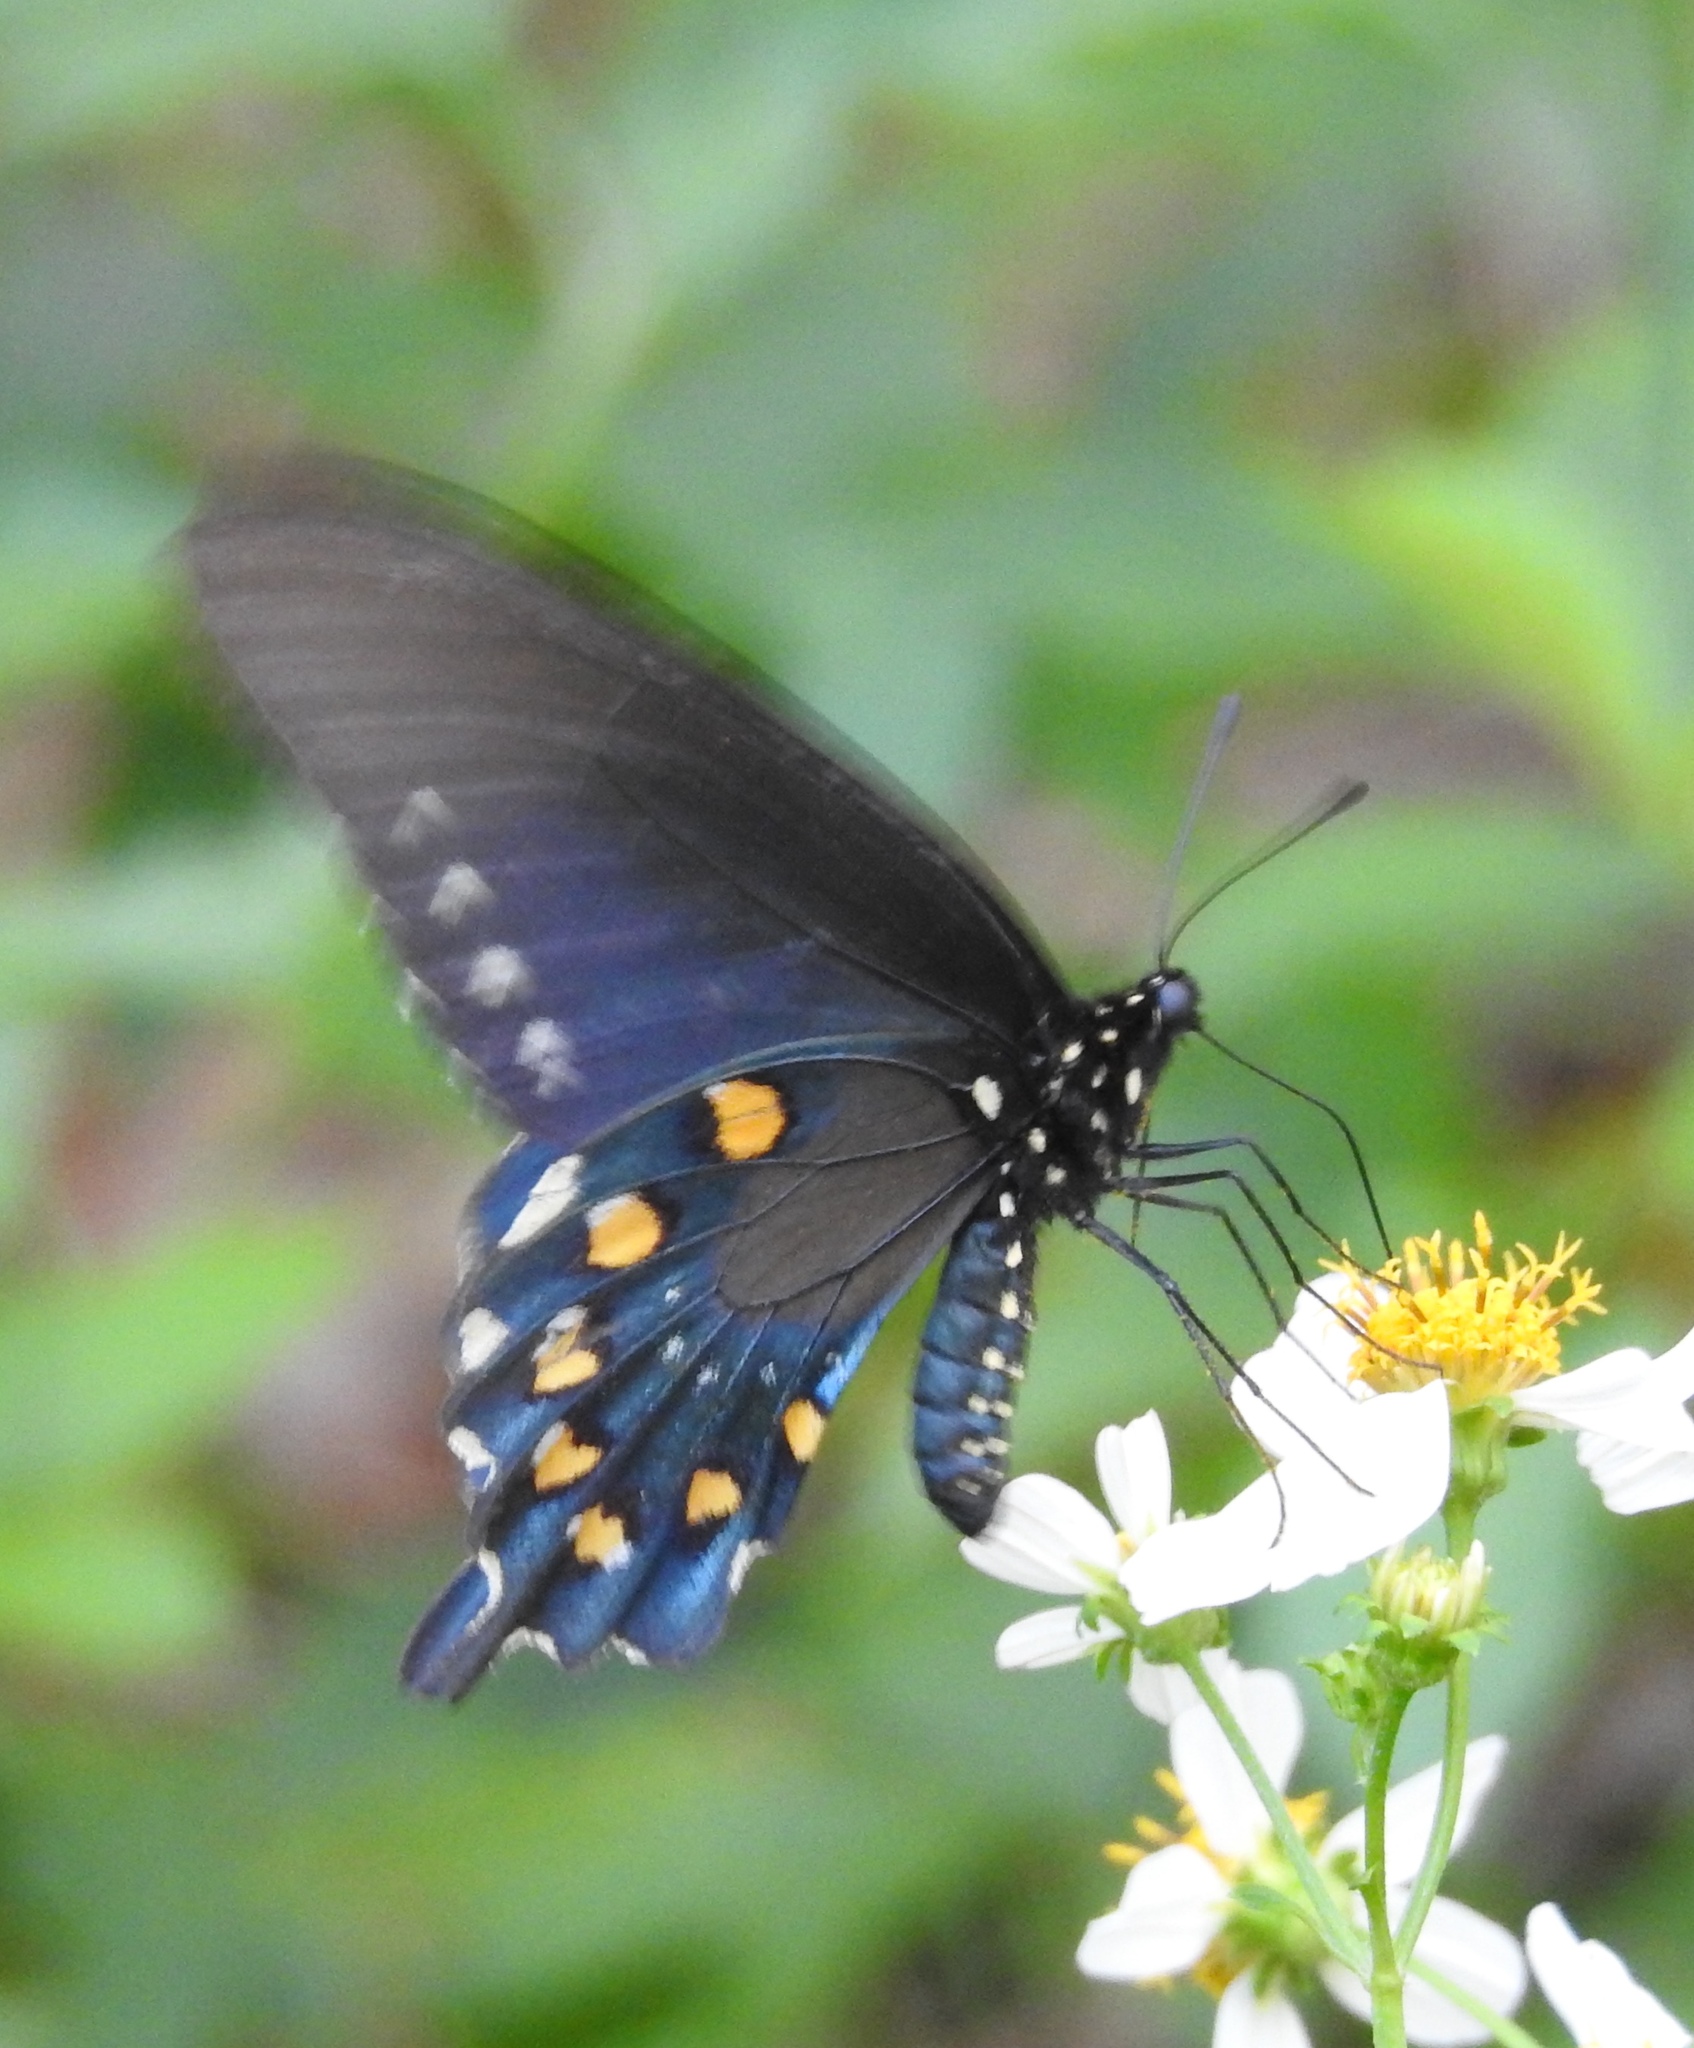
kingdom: Animalia
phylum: Arthropoda
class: Insecta
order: Lepidoptera
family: Papilionidae
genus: Battus
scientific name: Battus philenor
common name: Pipevine swallowtail
